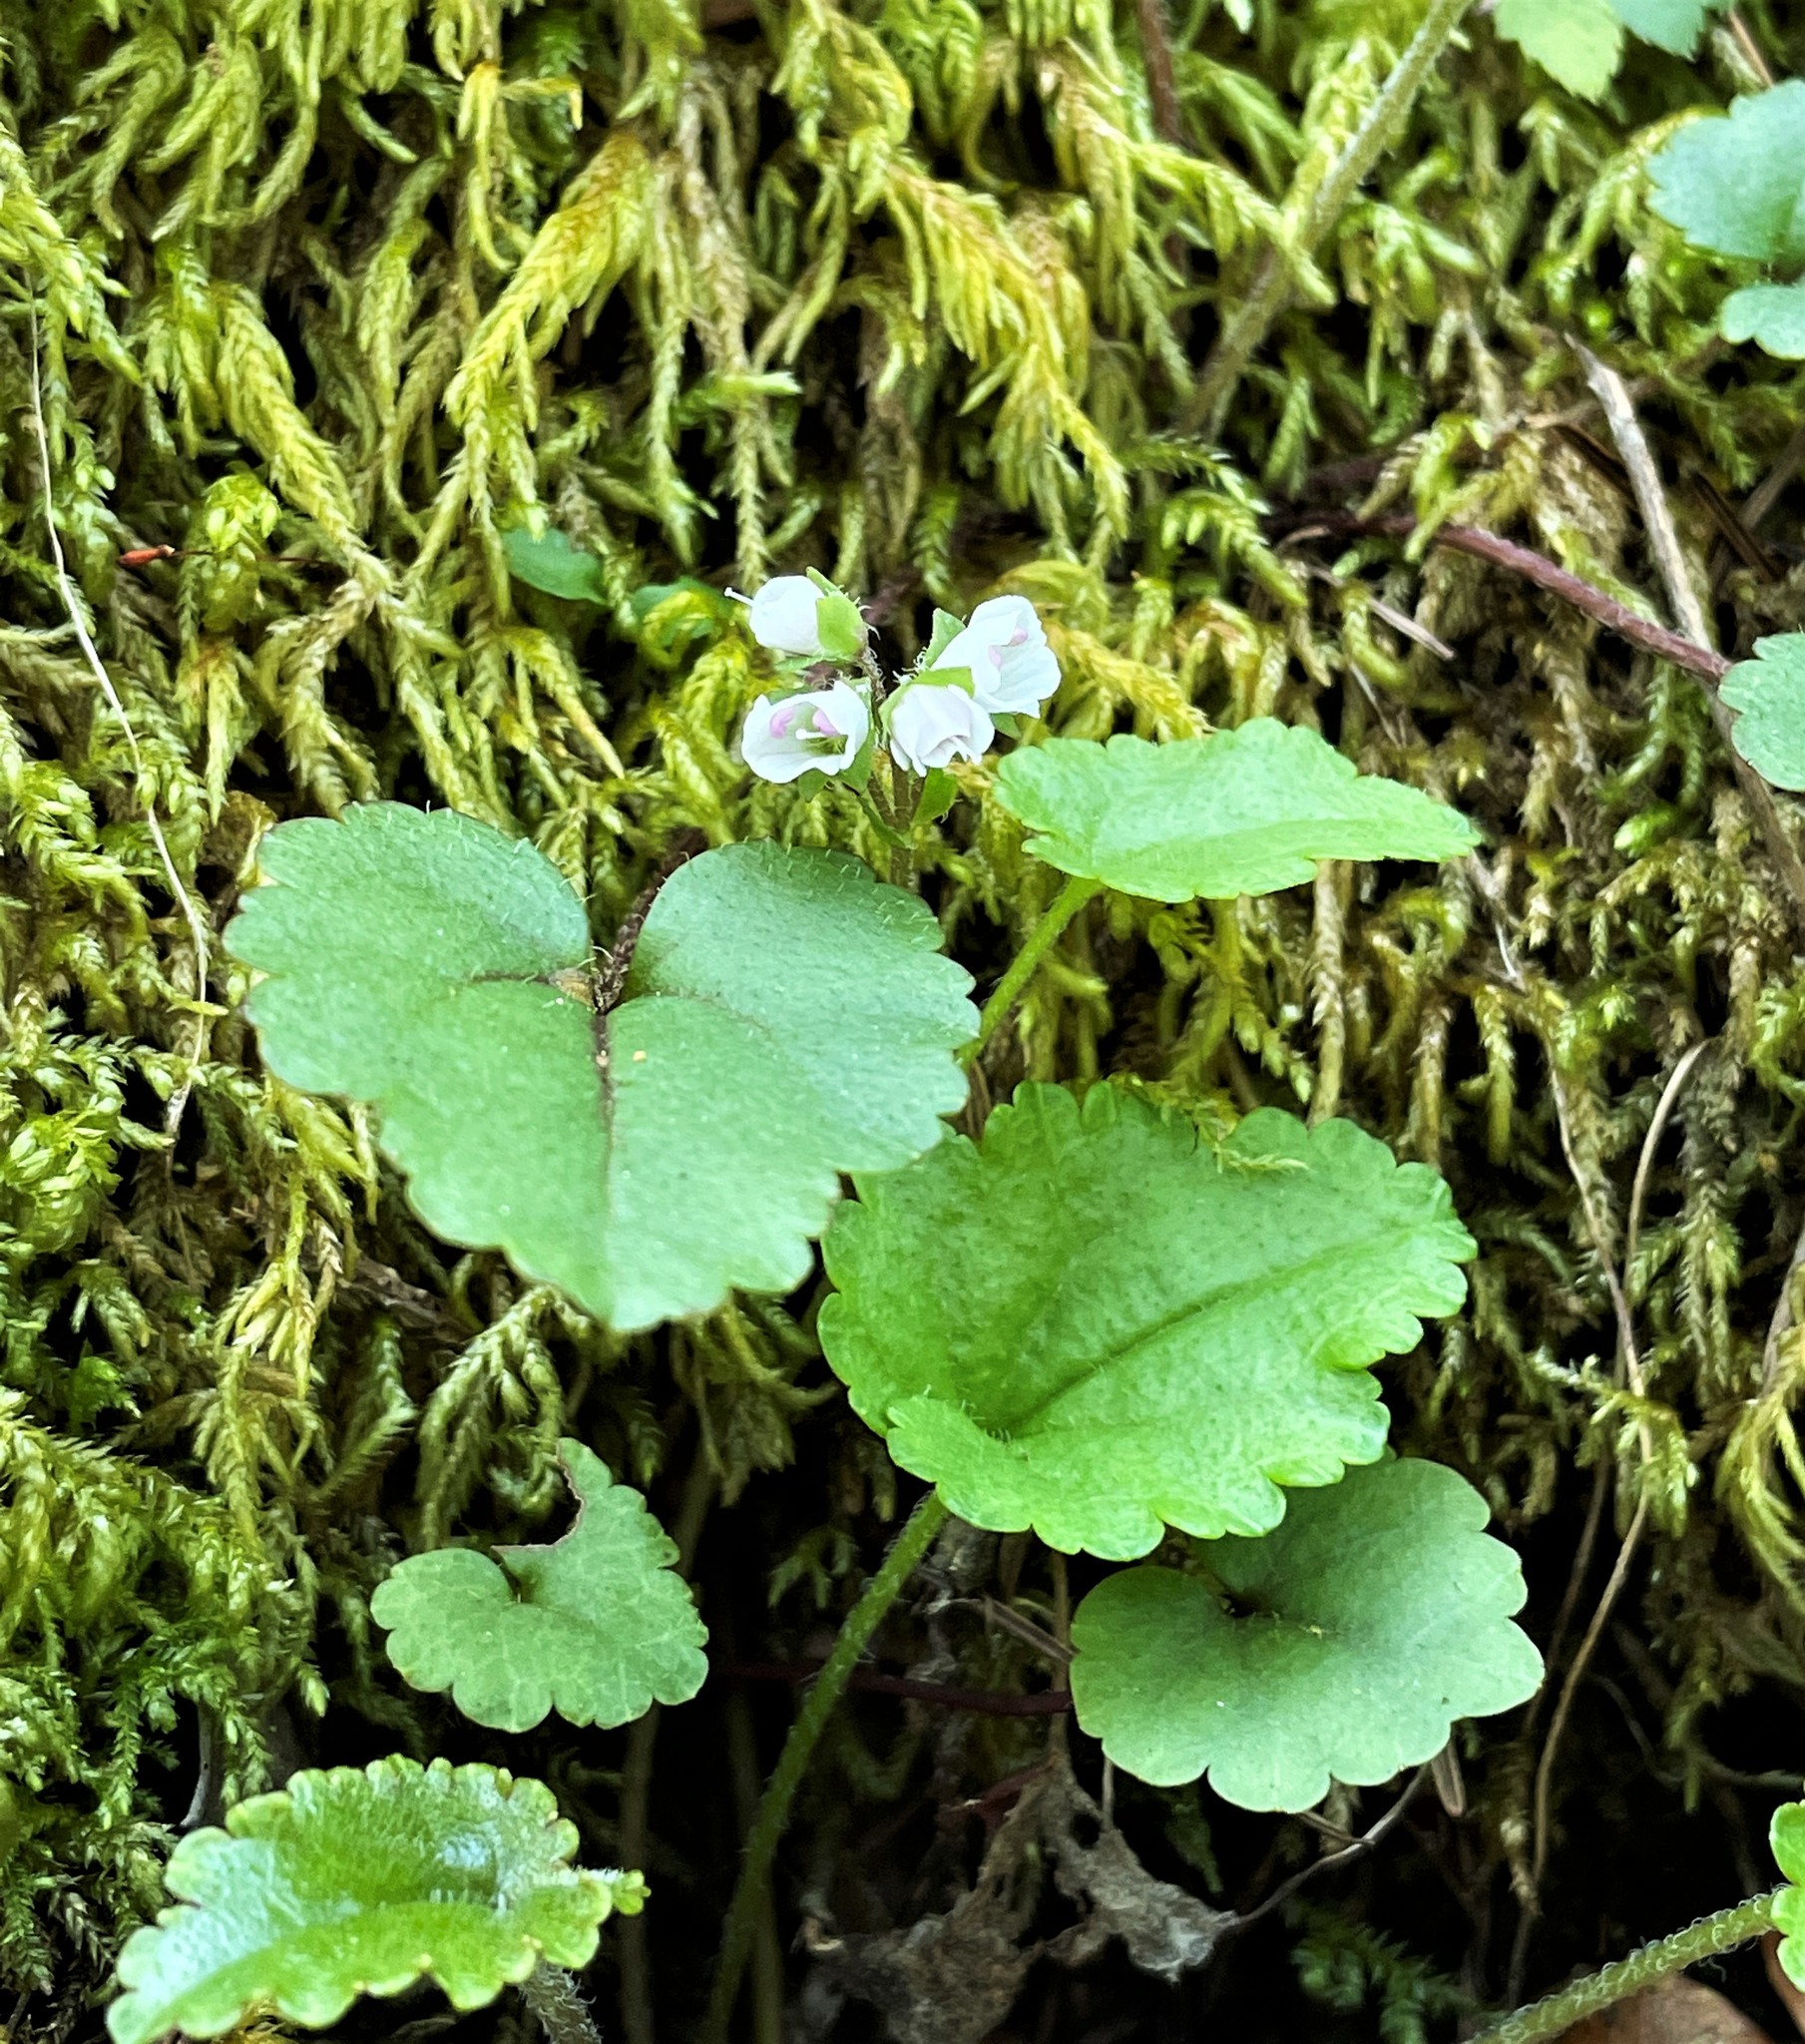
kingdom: Plantae
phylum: Tracheophyta
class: Magnoliopsida
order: Lamiales
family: Plantaginaceae
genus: Synthyris
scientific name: Synthyris cordata
